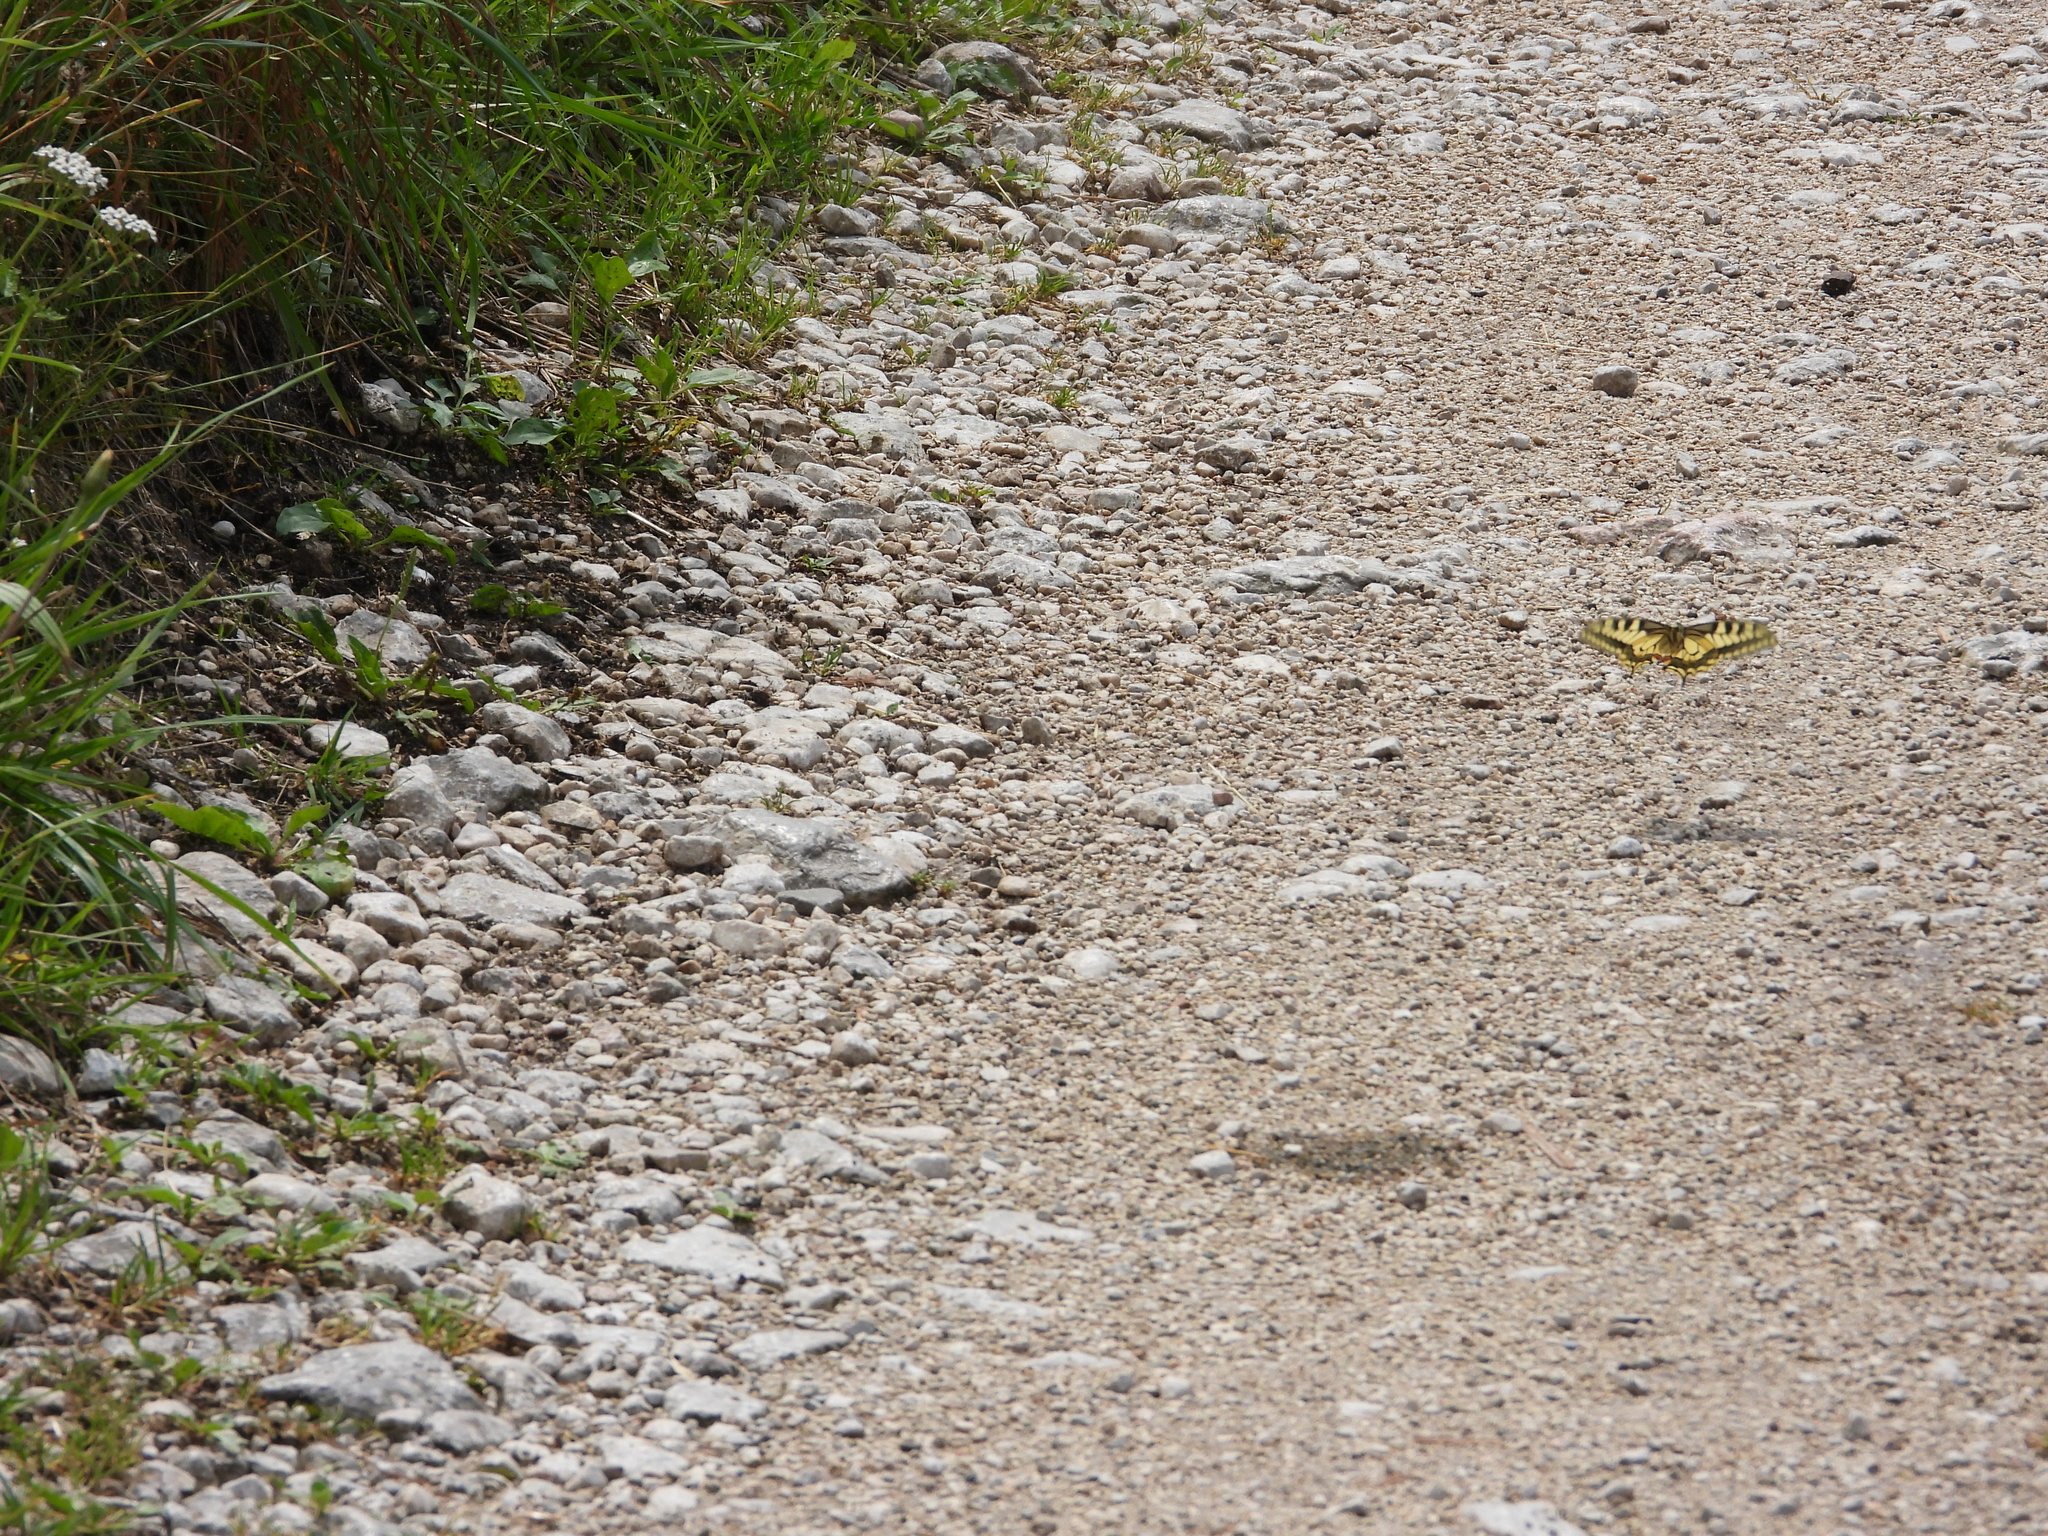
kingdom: Animalia
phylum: Arthropoda
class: Insecta
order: Lepidoptera
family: Papilionidae
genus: Papilio
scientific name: Papilio machaon
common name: Swallowtail
